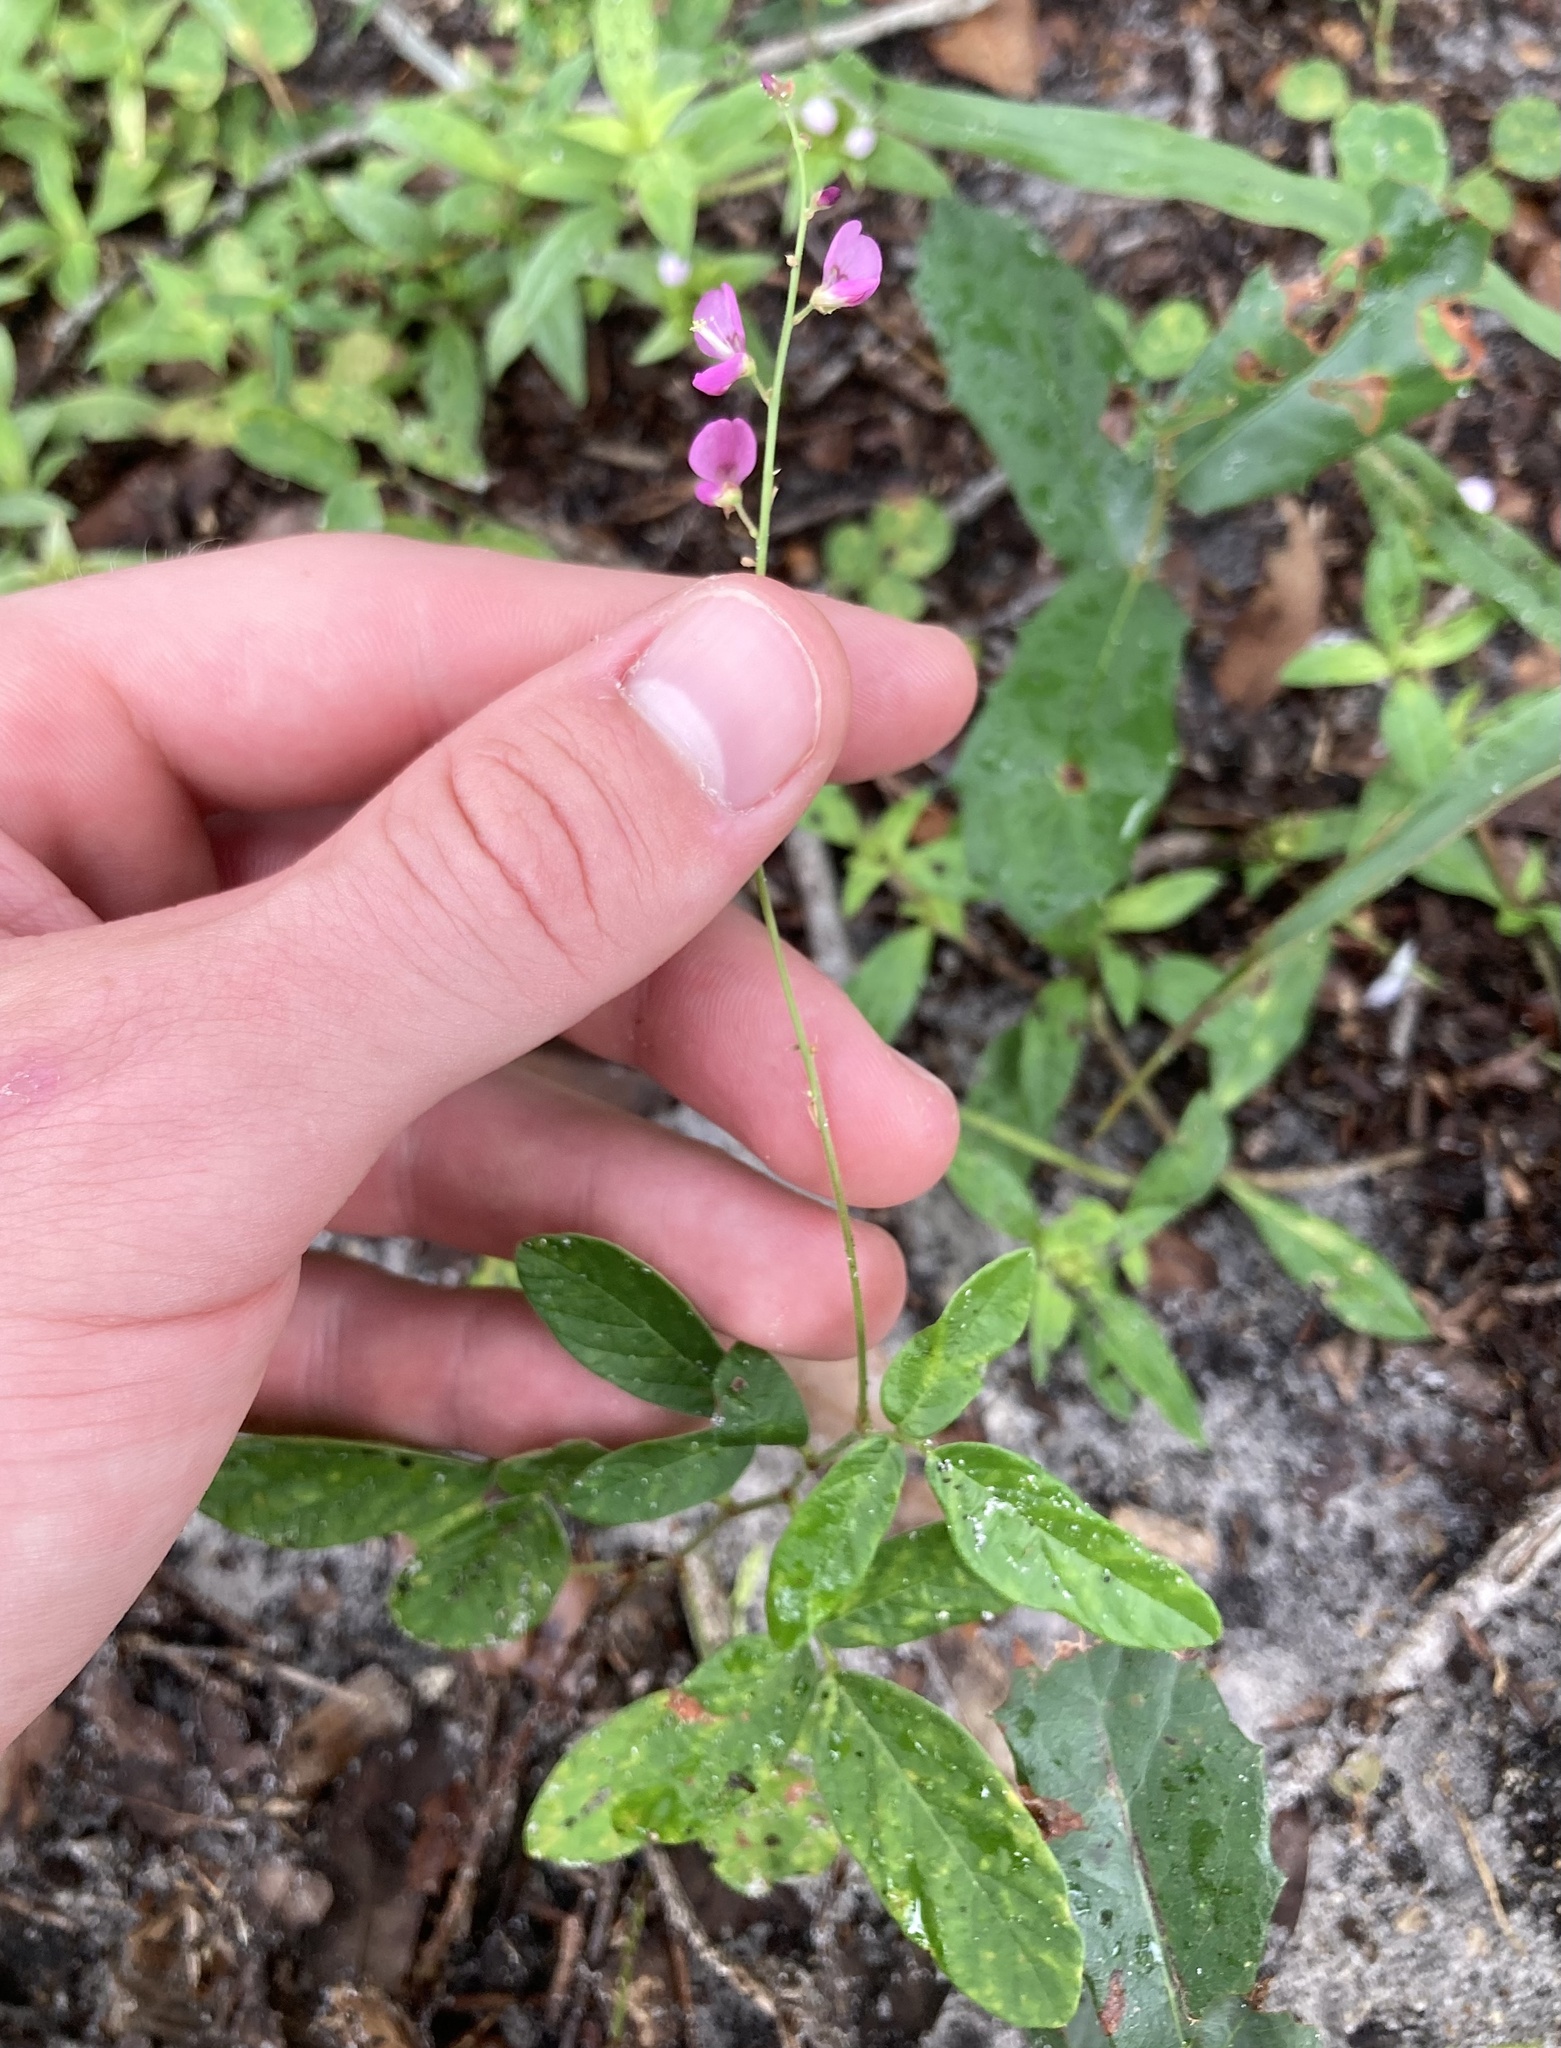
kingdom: Plantae
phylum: Tracheophyta
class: Magnoliopsida
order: Fabales
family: Fabaceae
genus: Desmodium
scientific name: Desmodium incanum
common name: Tickclover
